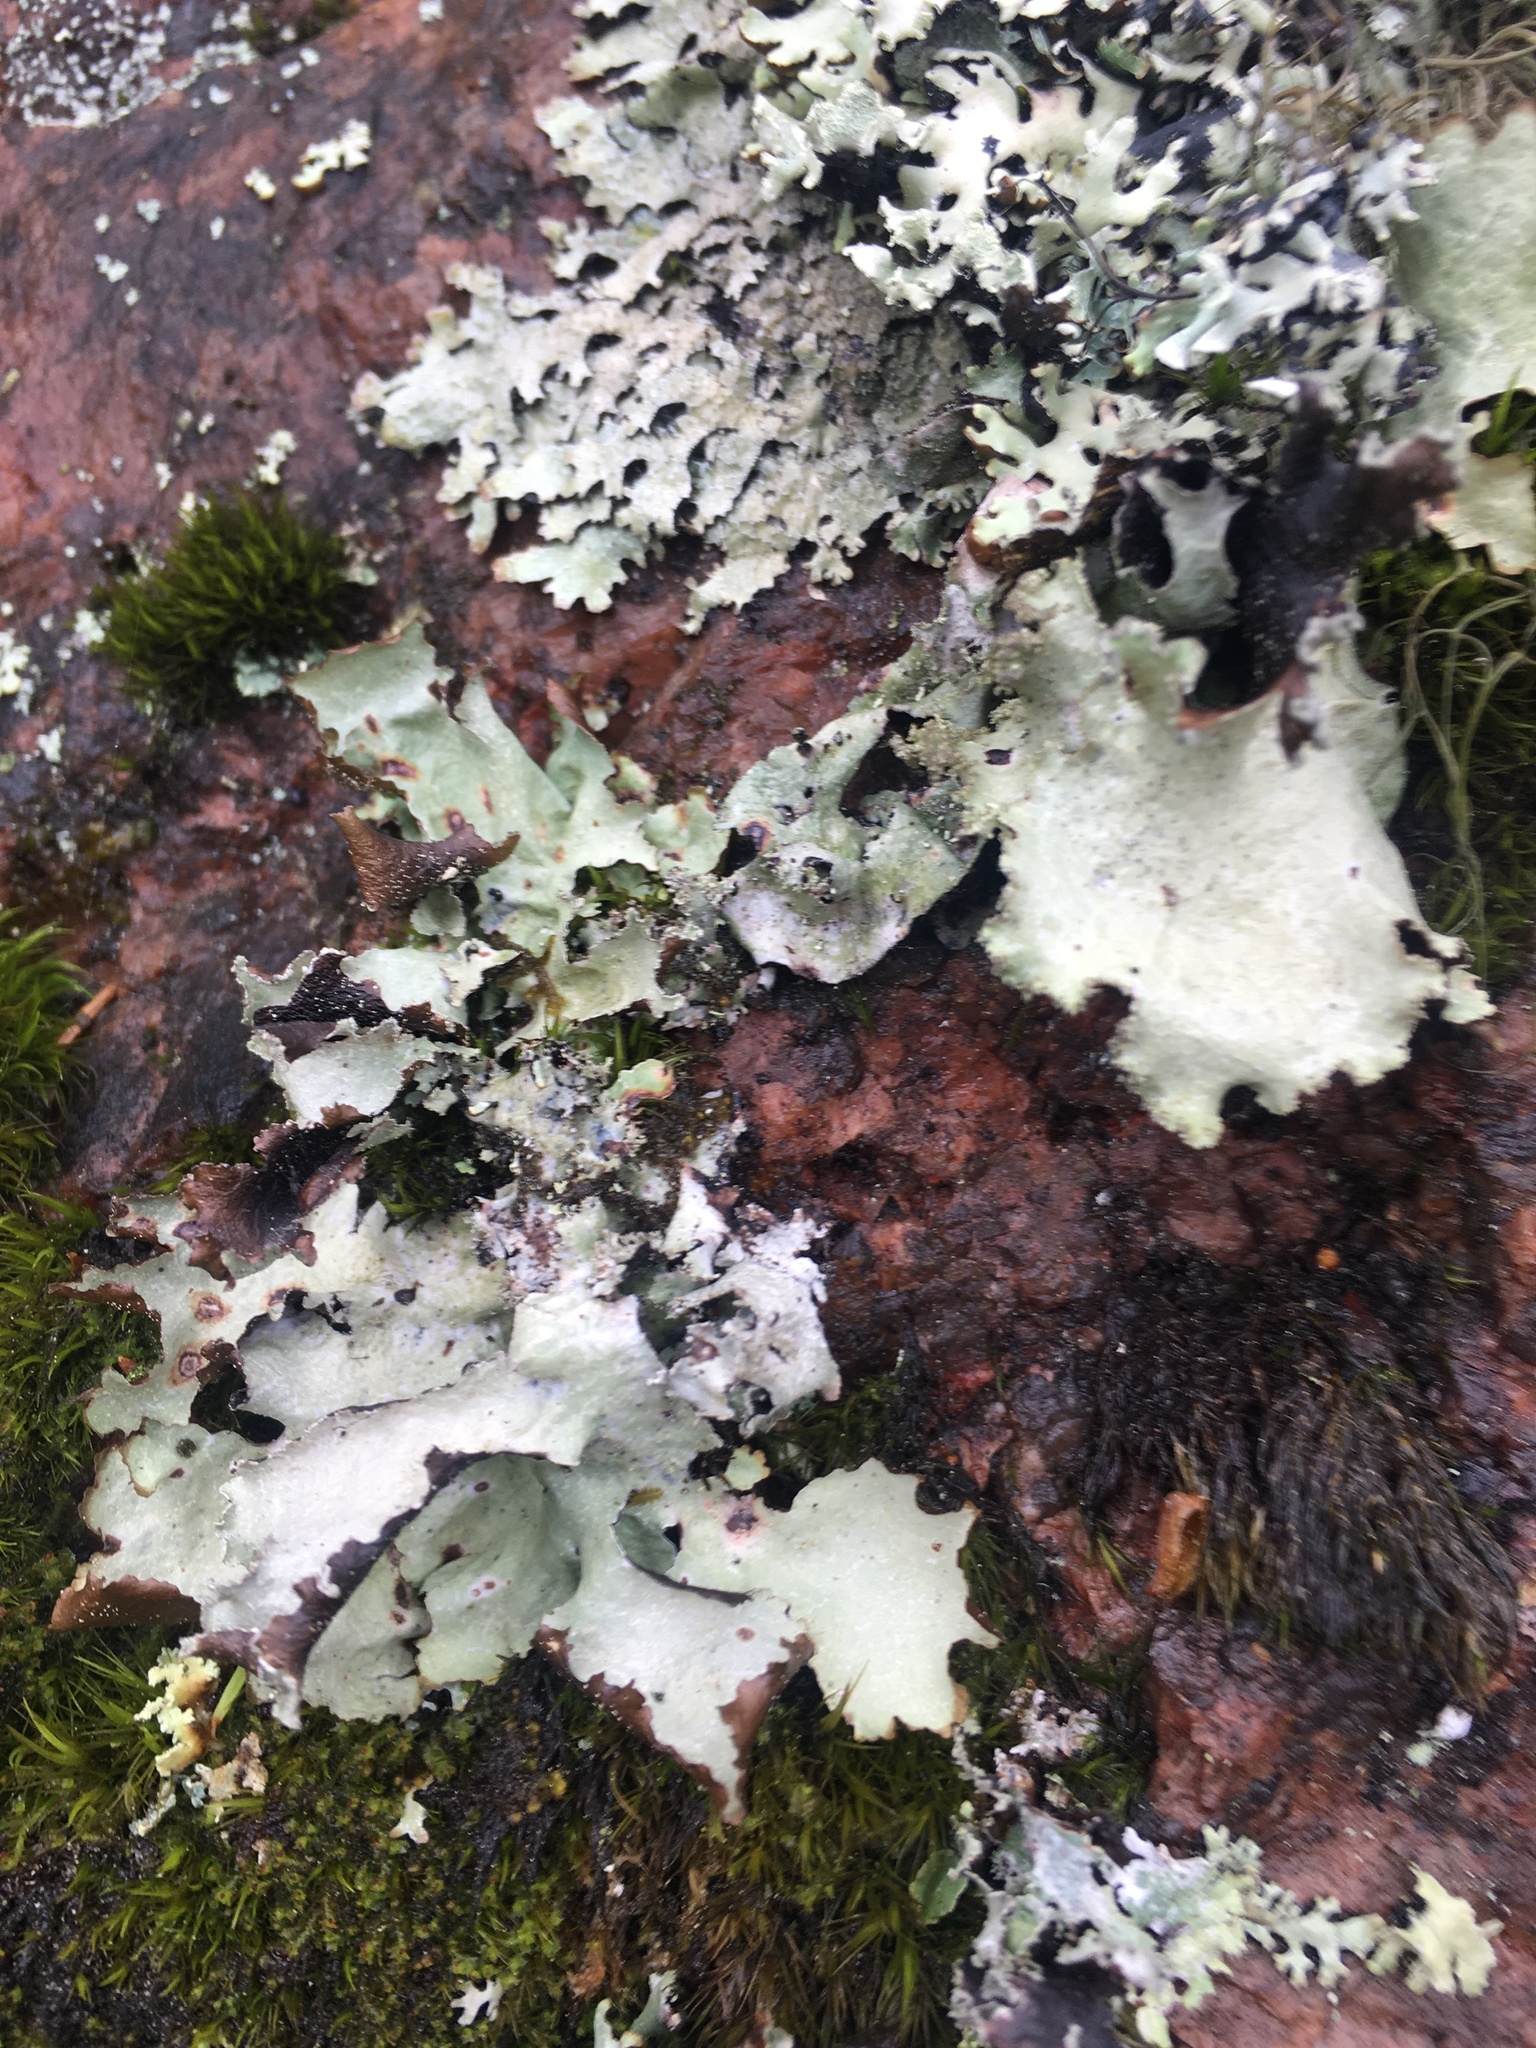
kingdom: Fungi
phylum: Ascomycota
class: Lecanoromycetes
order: Lecanorales
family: Parmeliaceae
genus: Platismatia
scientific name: Platismatia glauca
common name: Varied rag lichen
